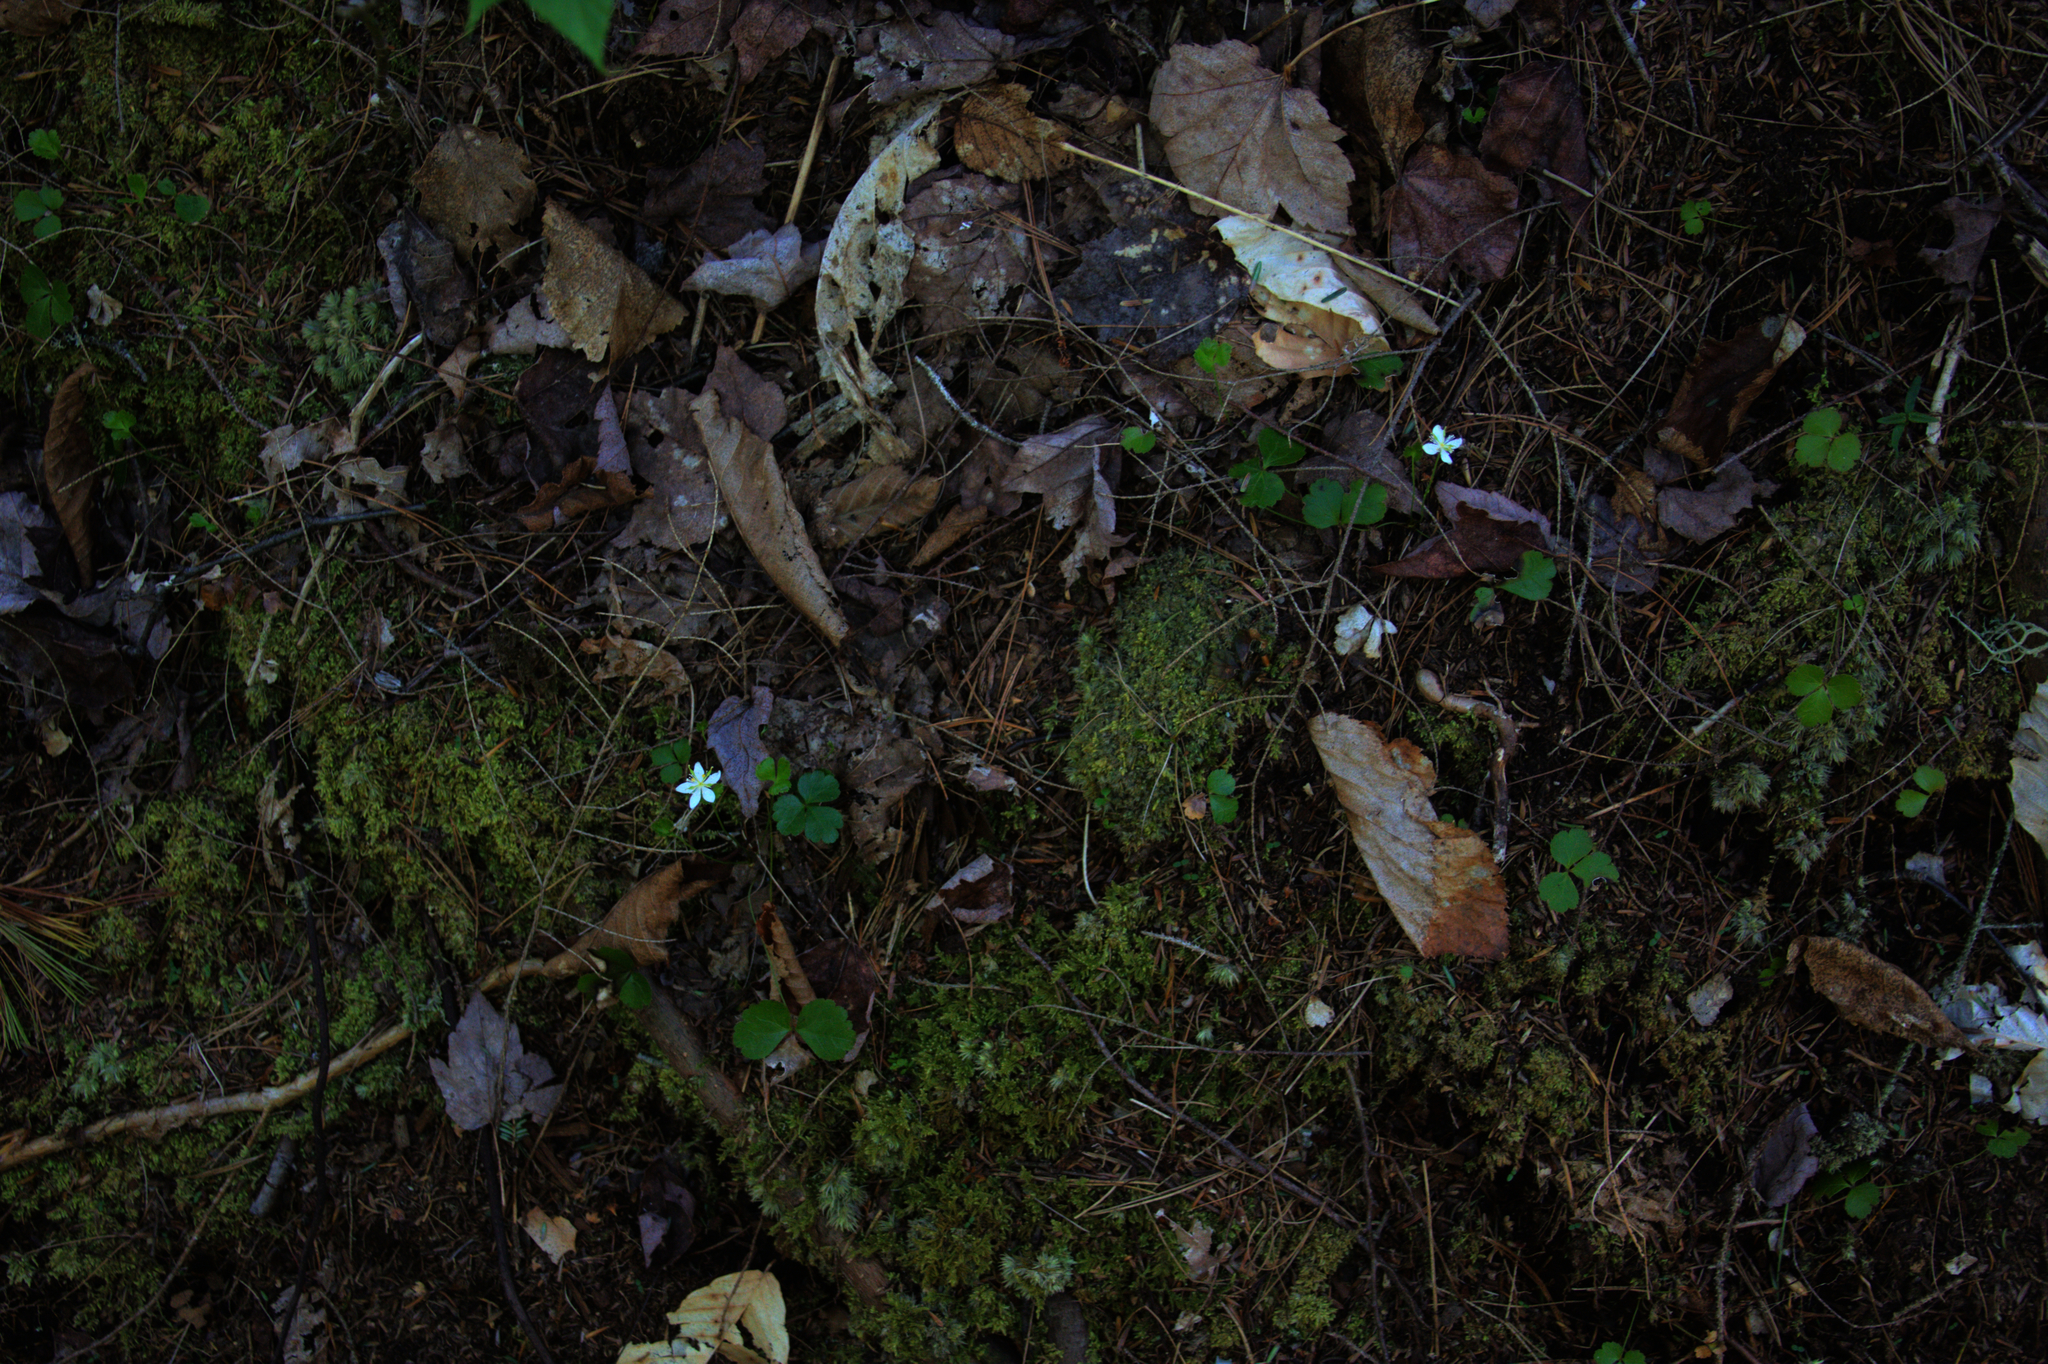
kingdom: Plantae
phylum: Tracheophyta
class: Magnoliopsida
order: Ranunculales
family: Ranunculaceae
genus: Coptis
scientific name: Coptis trifolia
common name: Canker-root
